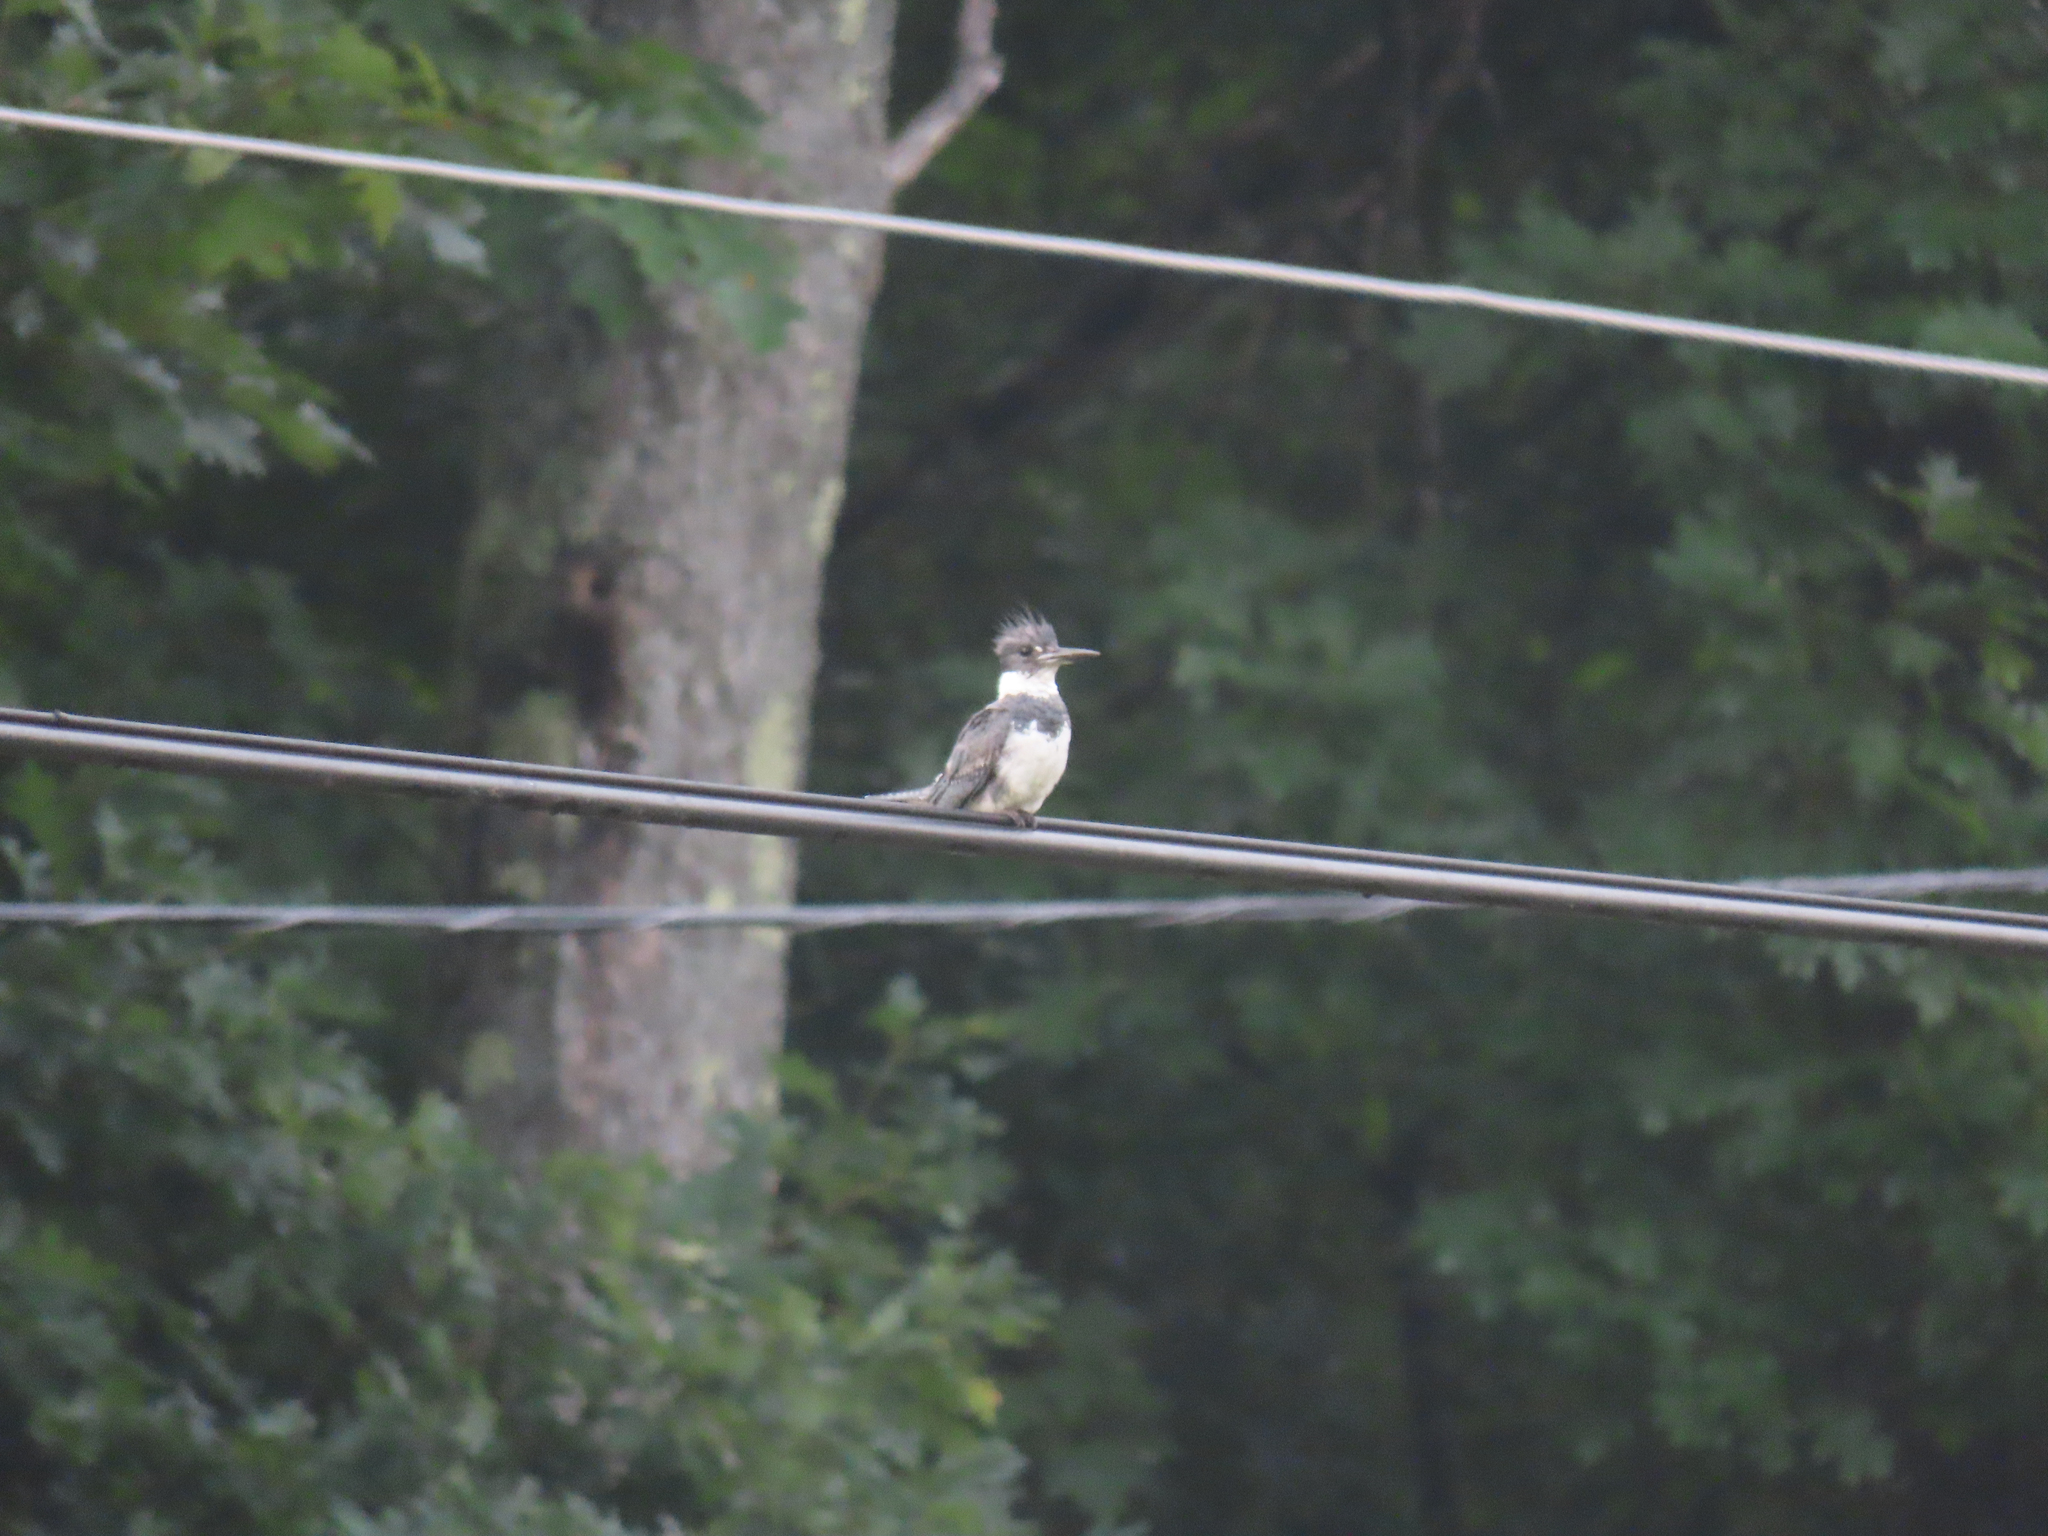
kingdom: Animalia
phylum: Chordata
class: Aves
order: Coraciiformes
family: Alcedinidae
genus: Megaceryle
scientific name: Megaceryle alcyon
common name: Belted kingfisher
